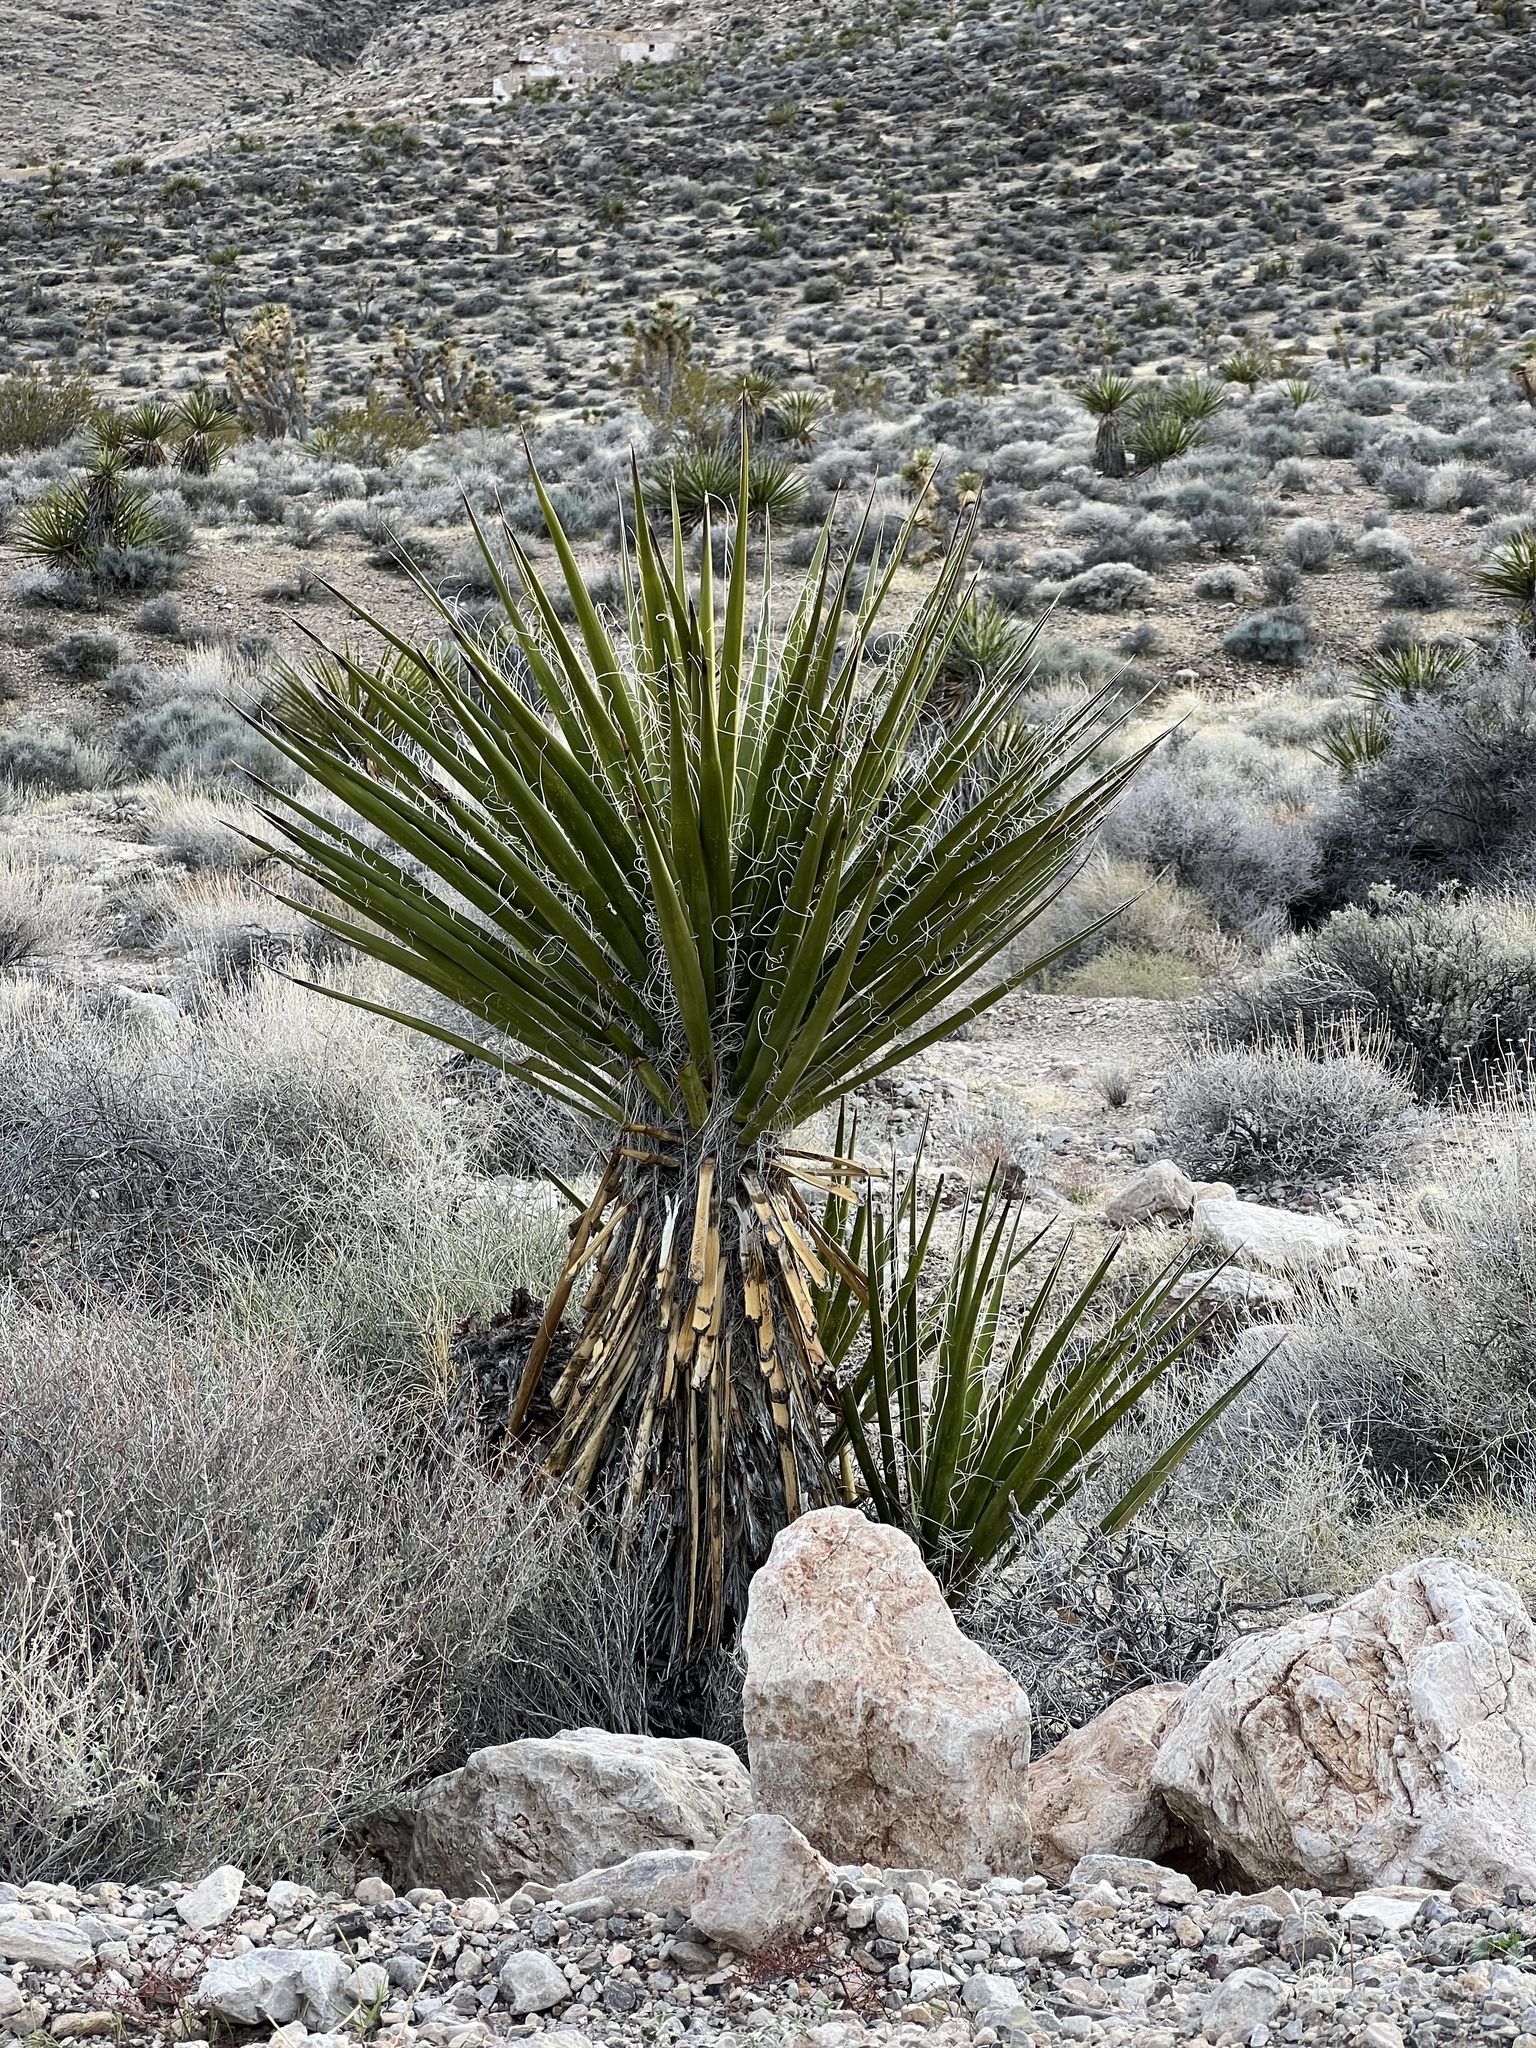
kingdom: Plantae
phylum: Tracheophyta
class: Liliopsida
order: Asparagales
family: Asparagaceae
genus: Yucca
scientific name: Yucca schidigera
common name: Mojave yucca
